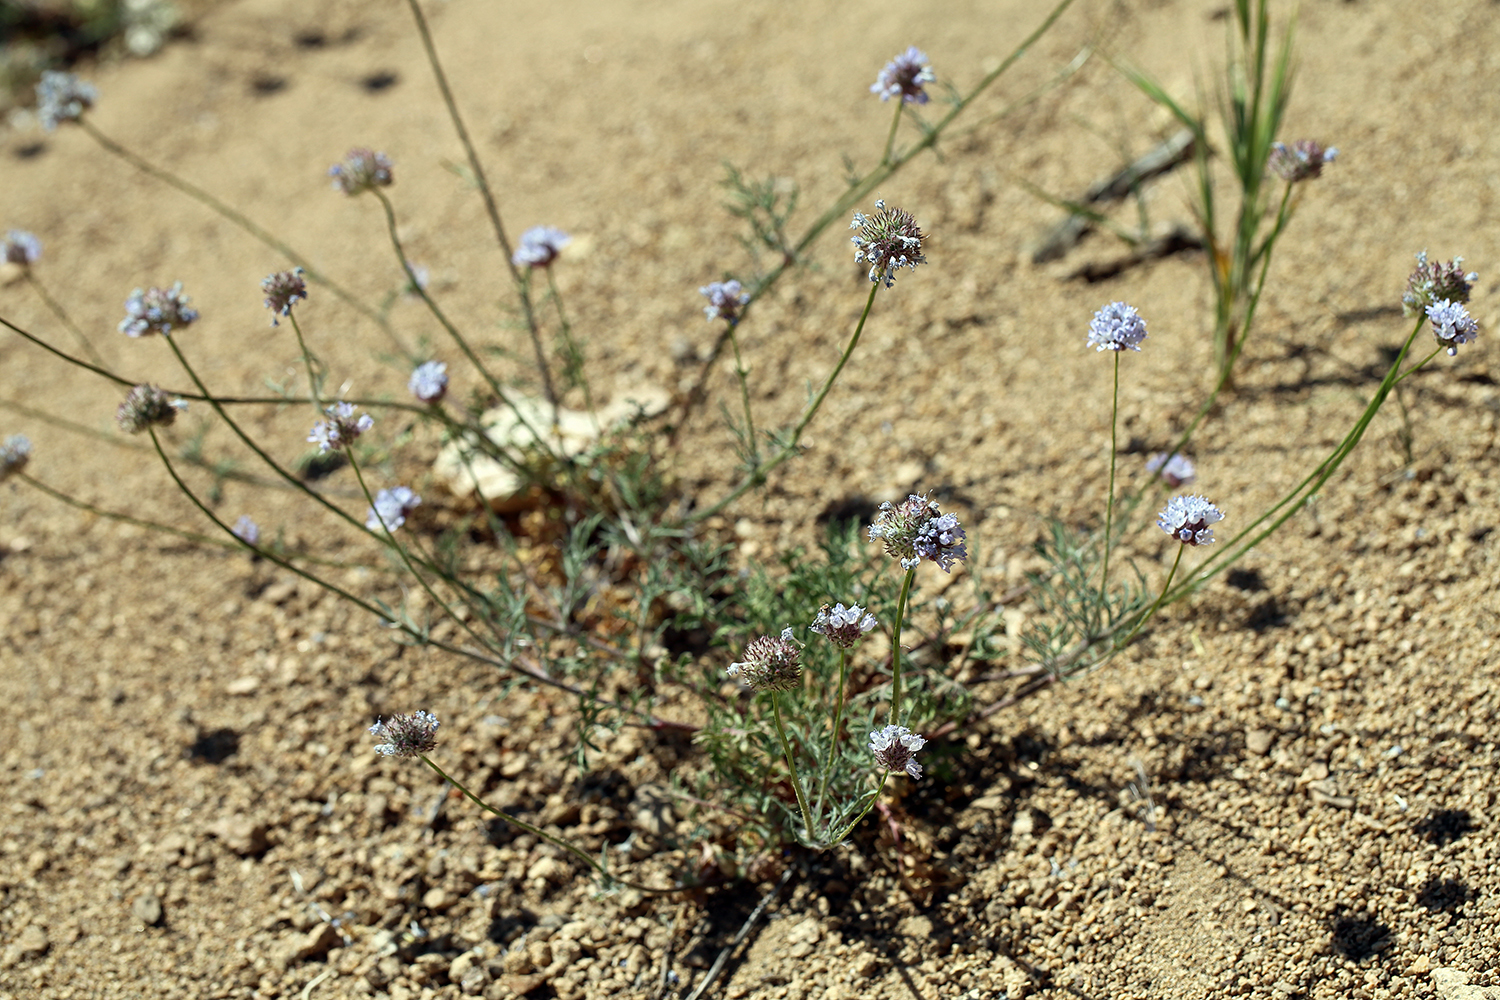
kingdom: Plantae
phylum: Tracheophyta
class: Magnoliopsida
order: Ericales
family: Polemoniaceae
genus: Gilia
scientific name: Gilia capitata
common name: Bluehead gilia
